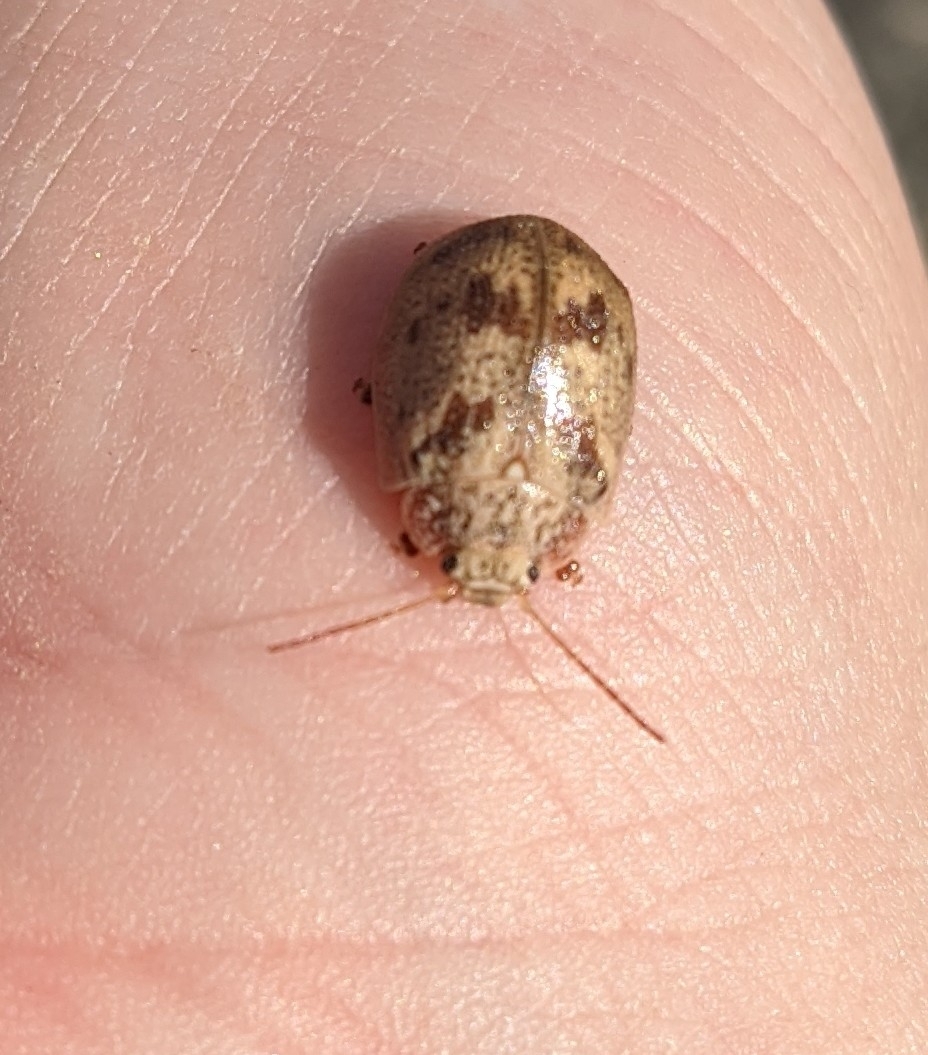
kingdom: Animalia
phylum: Arthropoda
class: Insecta
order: Coleoptera
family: Chrysomelidae
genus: Paropsis
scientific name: Paropsis charybdis
